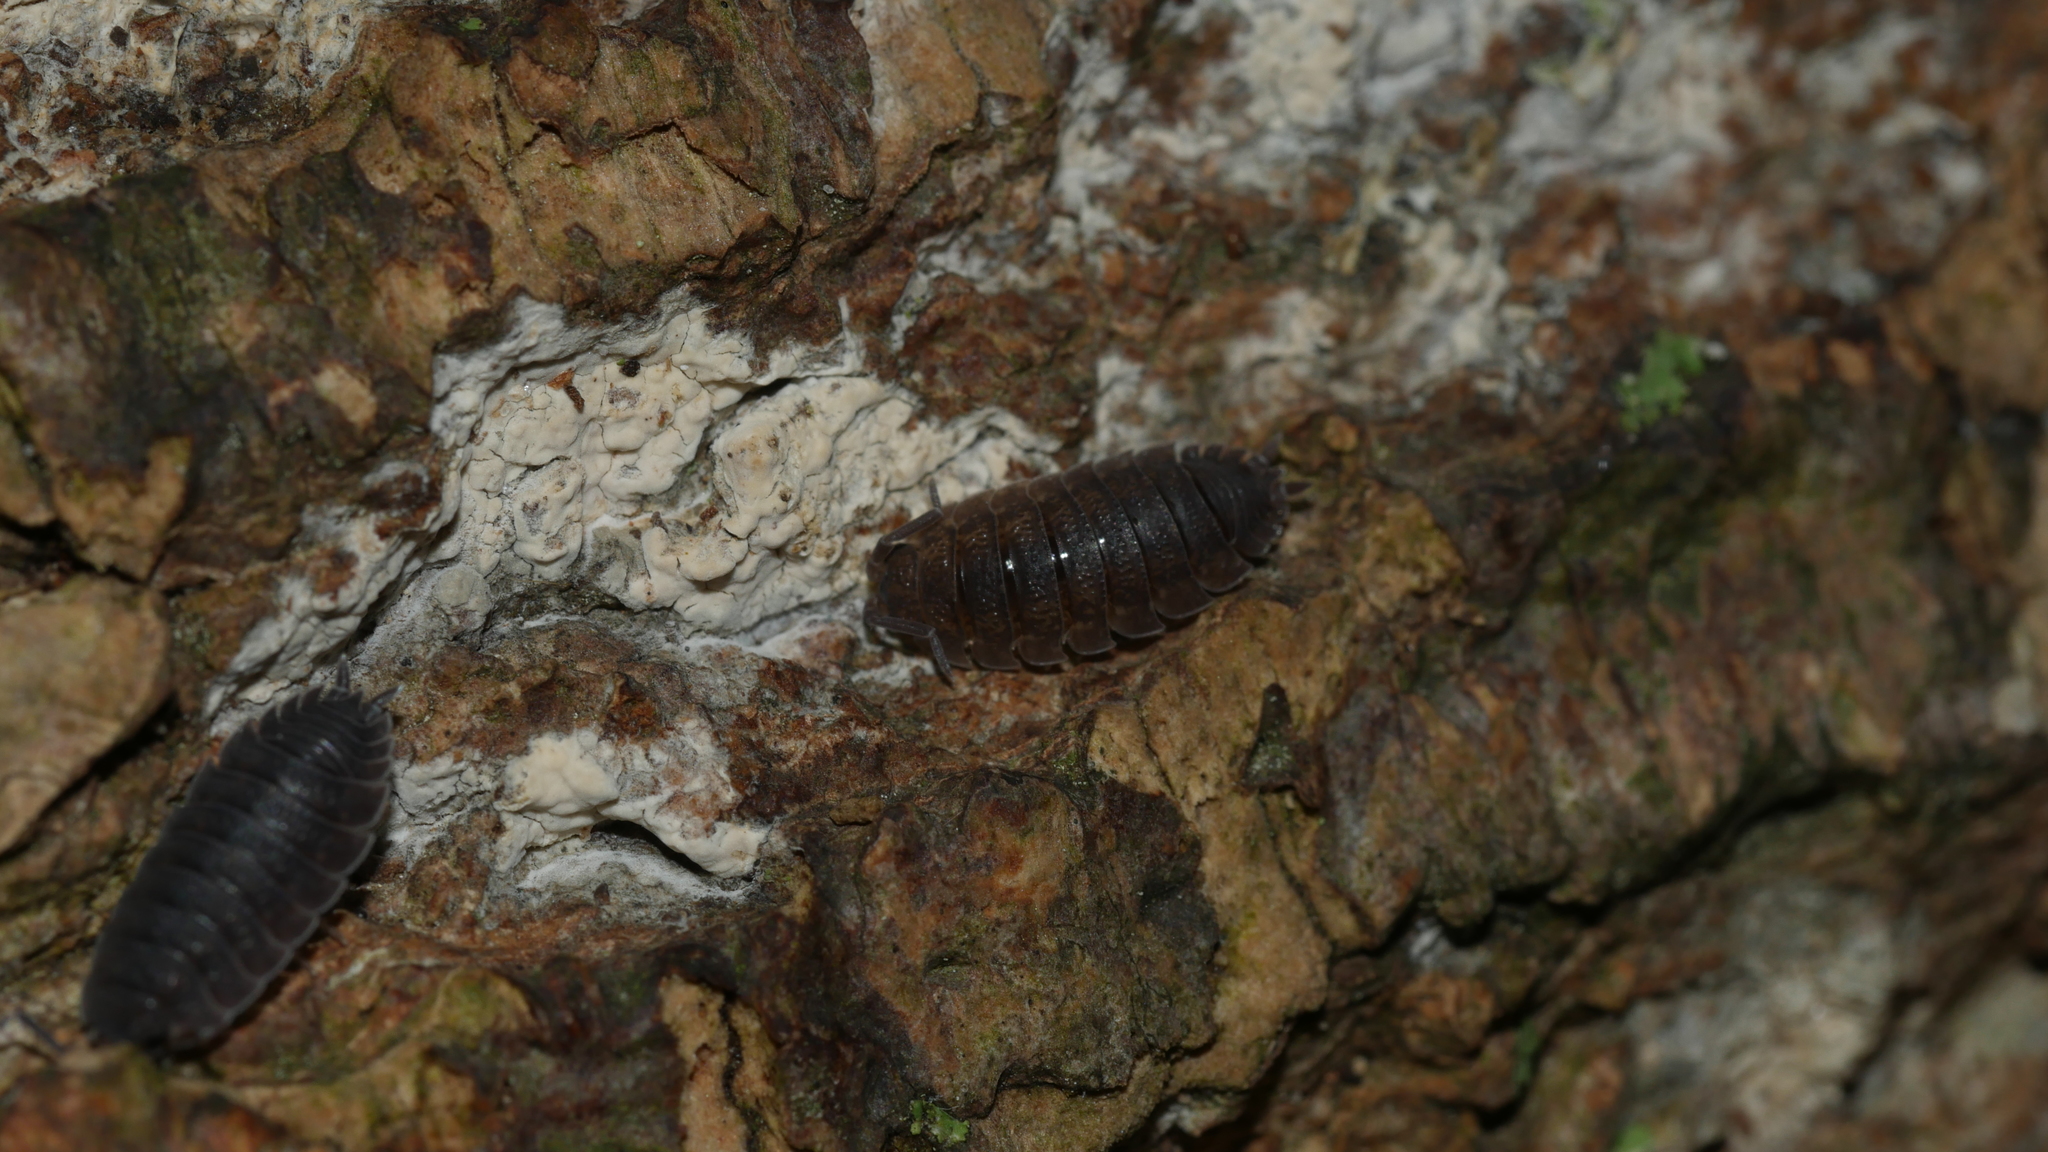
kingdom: Animalia
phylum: Arthropoda
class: Malacostraca
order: Isopoda
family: Porcellionidae
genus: Porcellio
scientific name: Porcellio scaber
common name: Common rough woodlouse
